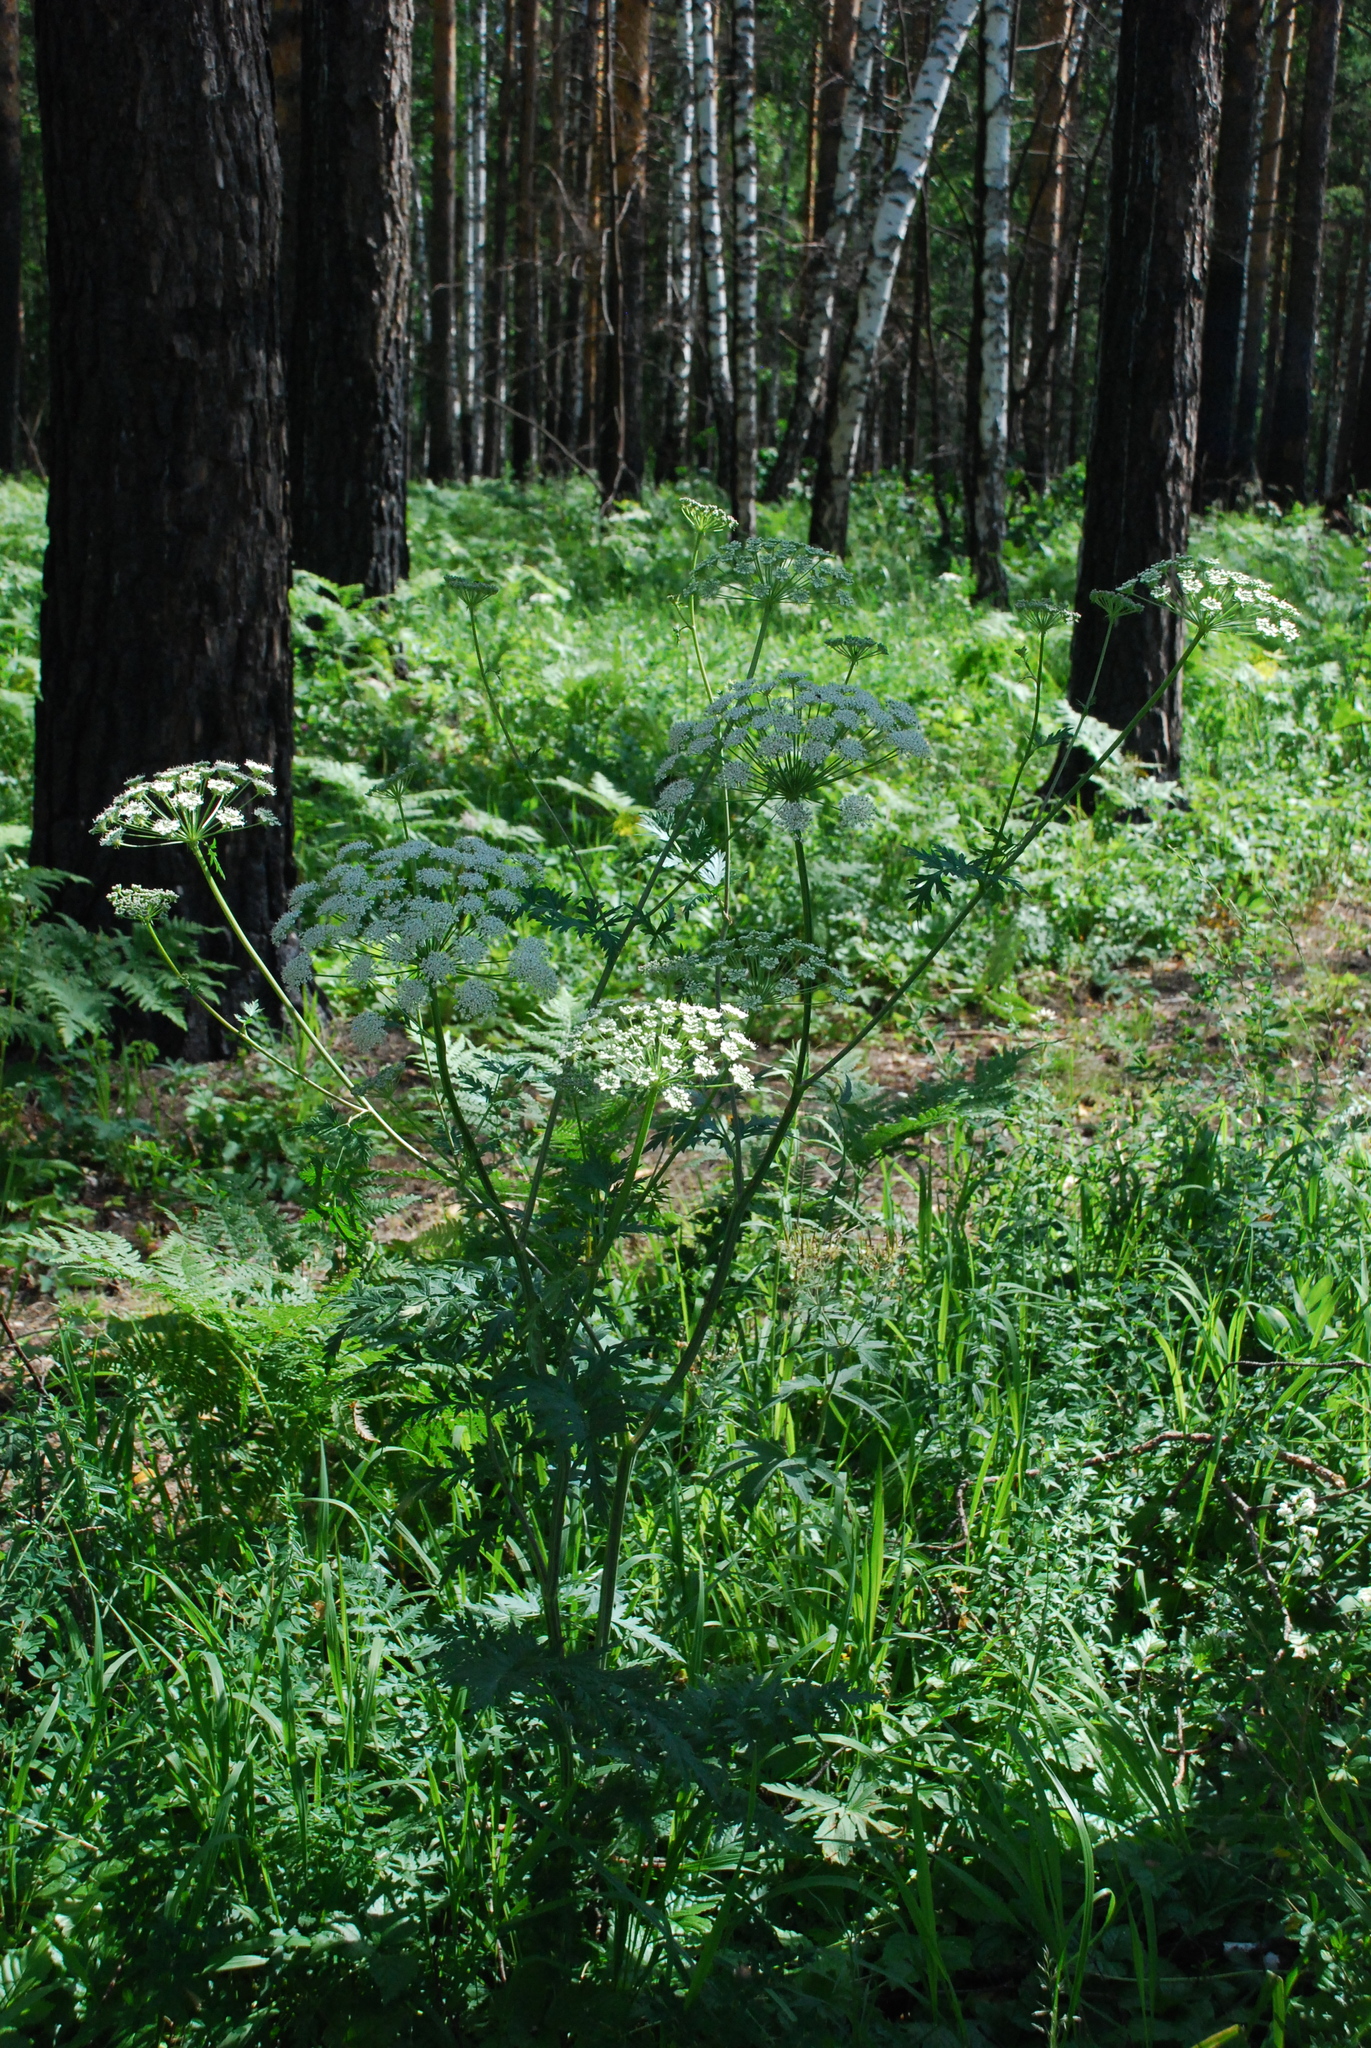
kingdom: Plantae
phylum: Tracheophyta
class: Magnoliopsida
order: Apiales
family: Apiaceae
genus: Seseli
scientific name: Seseli libanotis
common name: Mooncarrot
